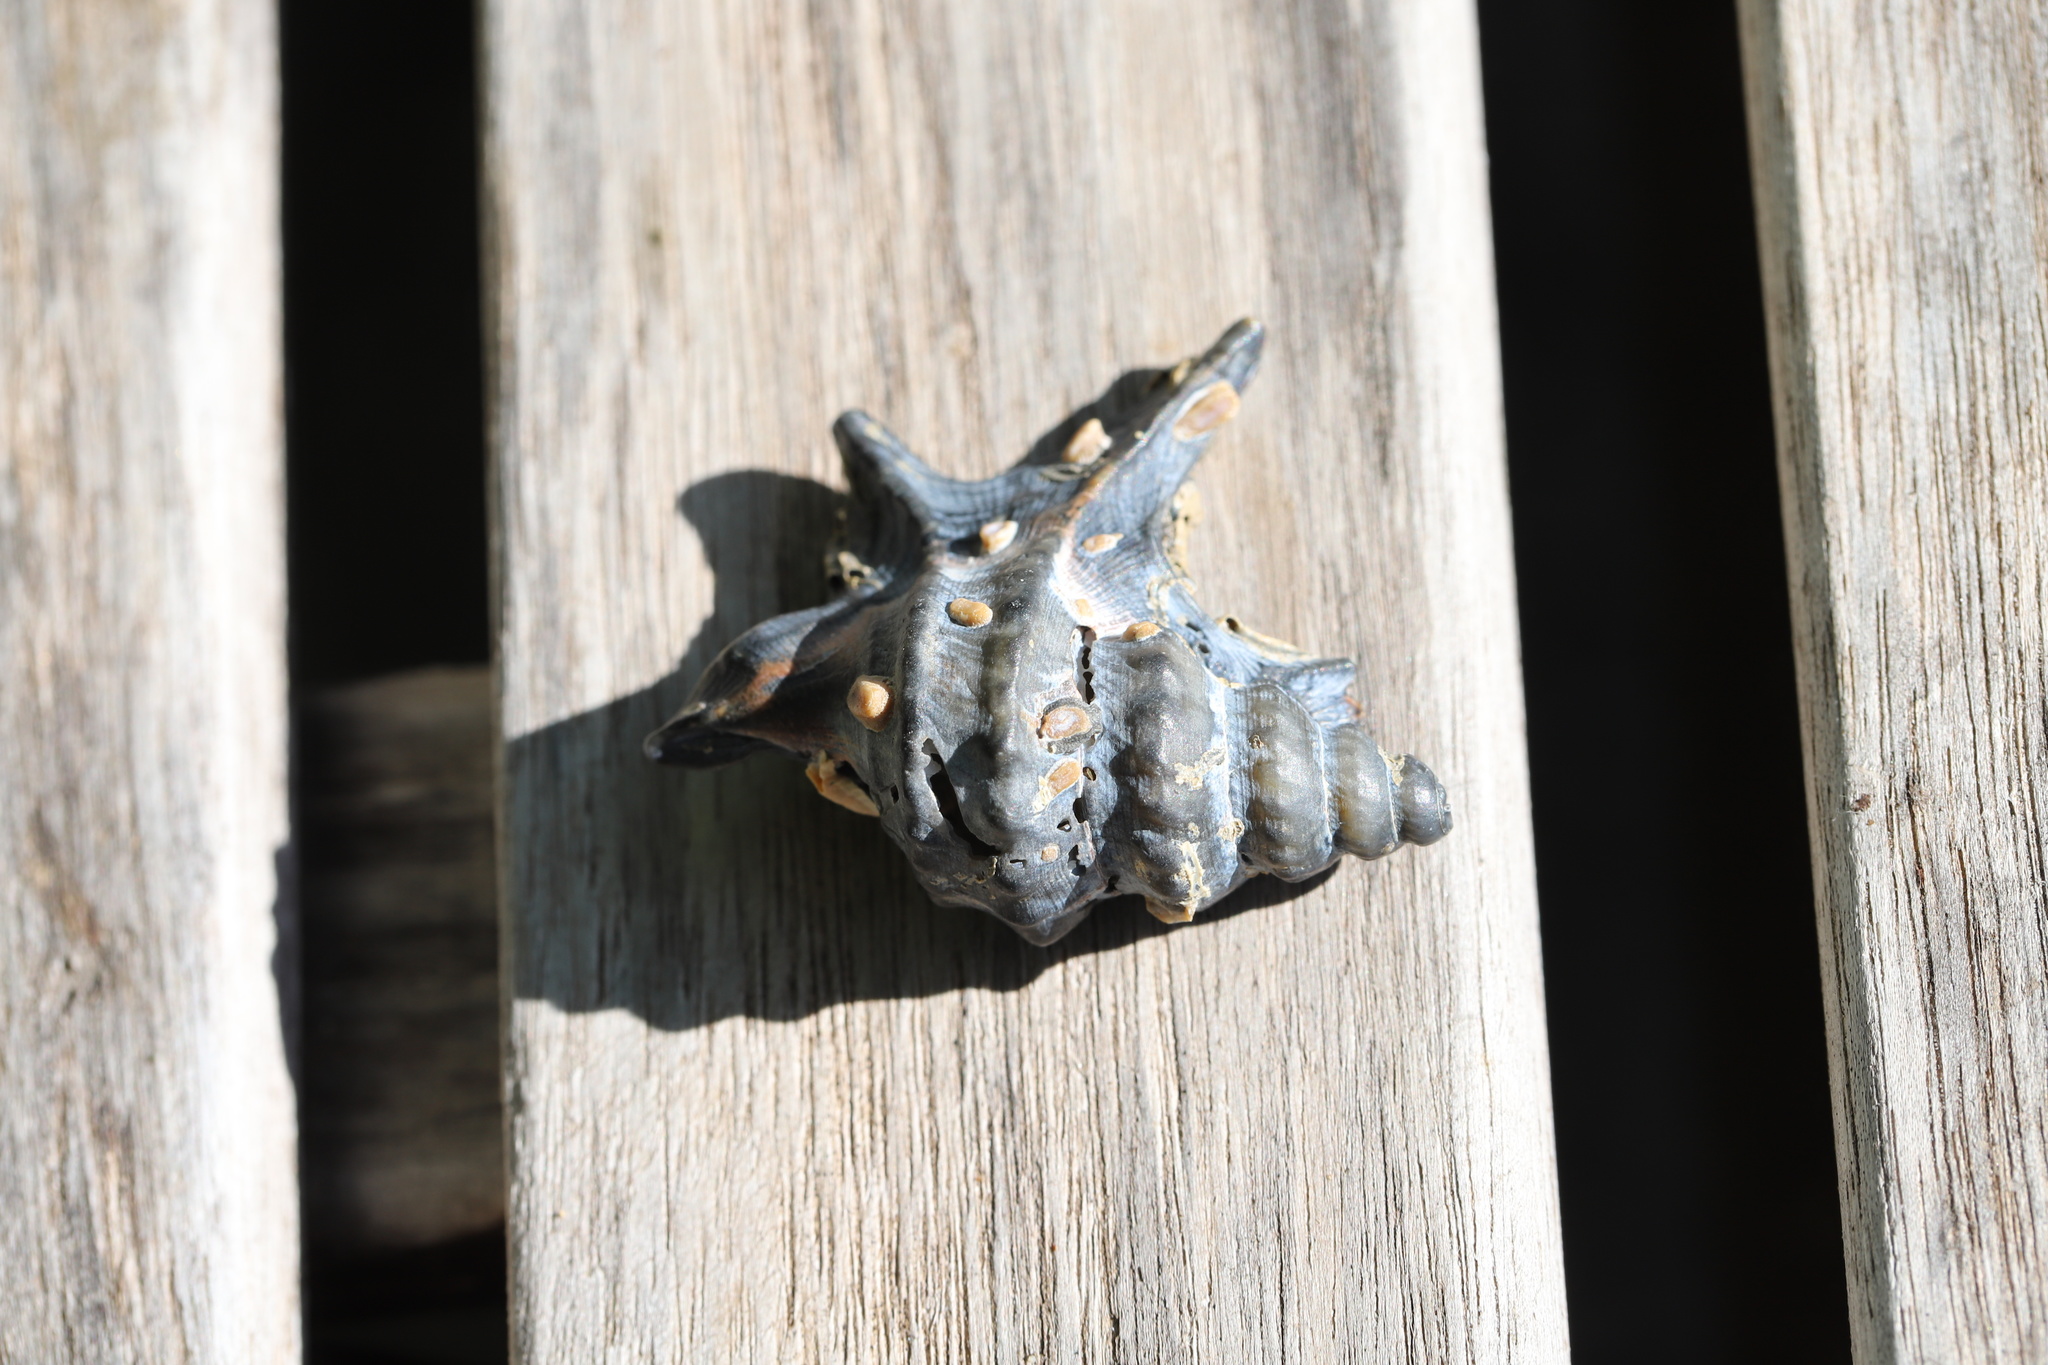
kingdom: Animalia
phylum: Mollusca
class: Gastropoda
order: Littorinimorpha
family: Aporrhaidae
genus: Aporrhais
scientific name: Aporrhais pespelecani
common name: Common pelican’s foot
